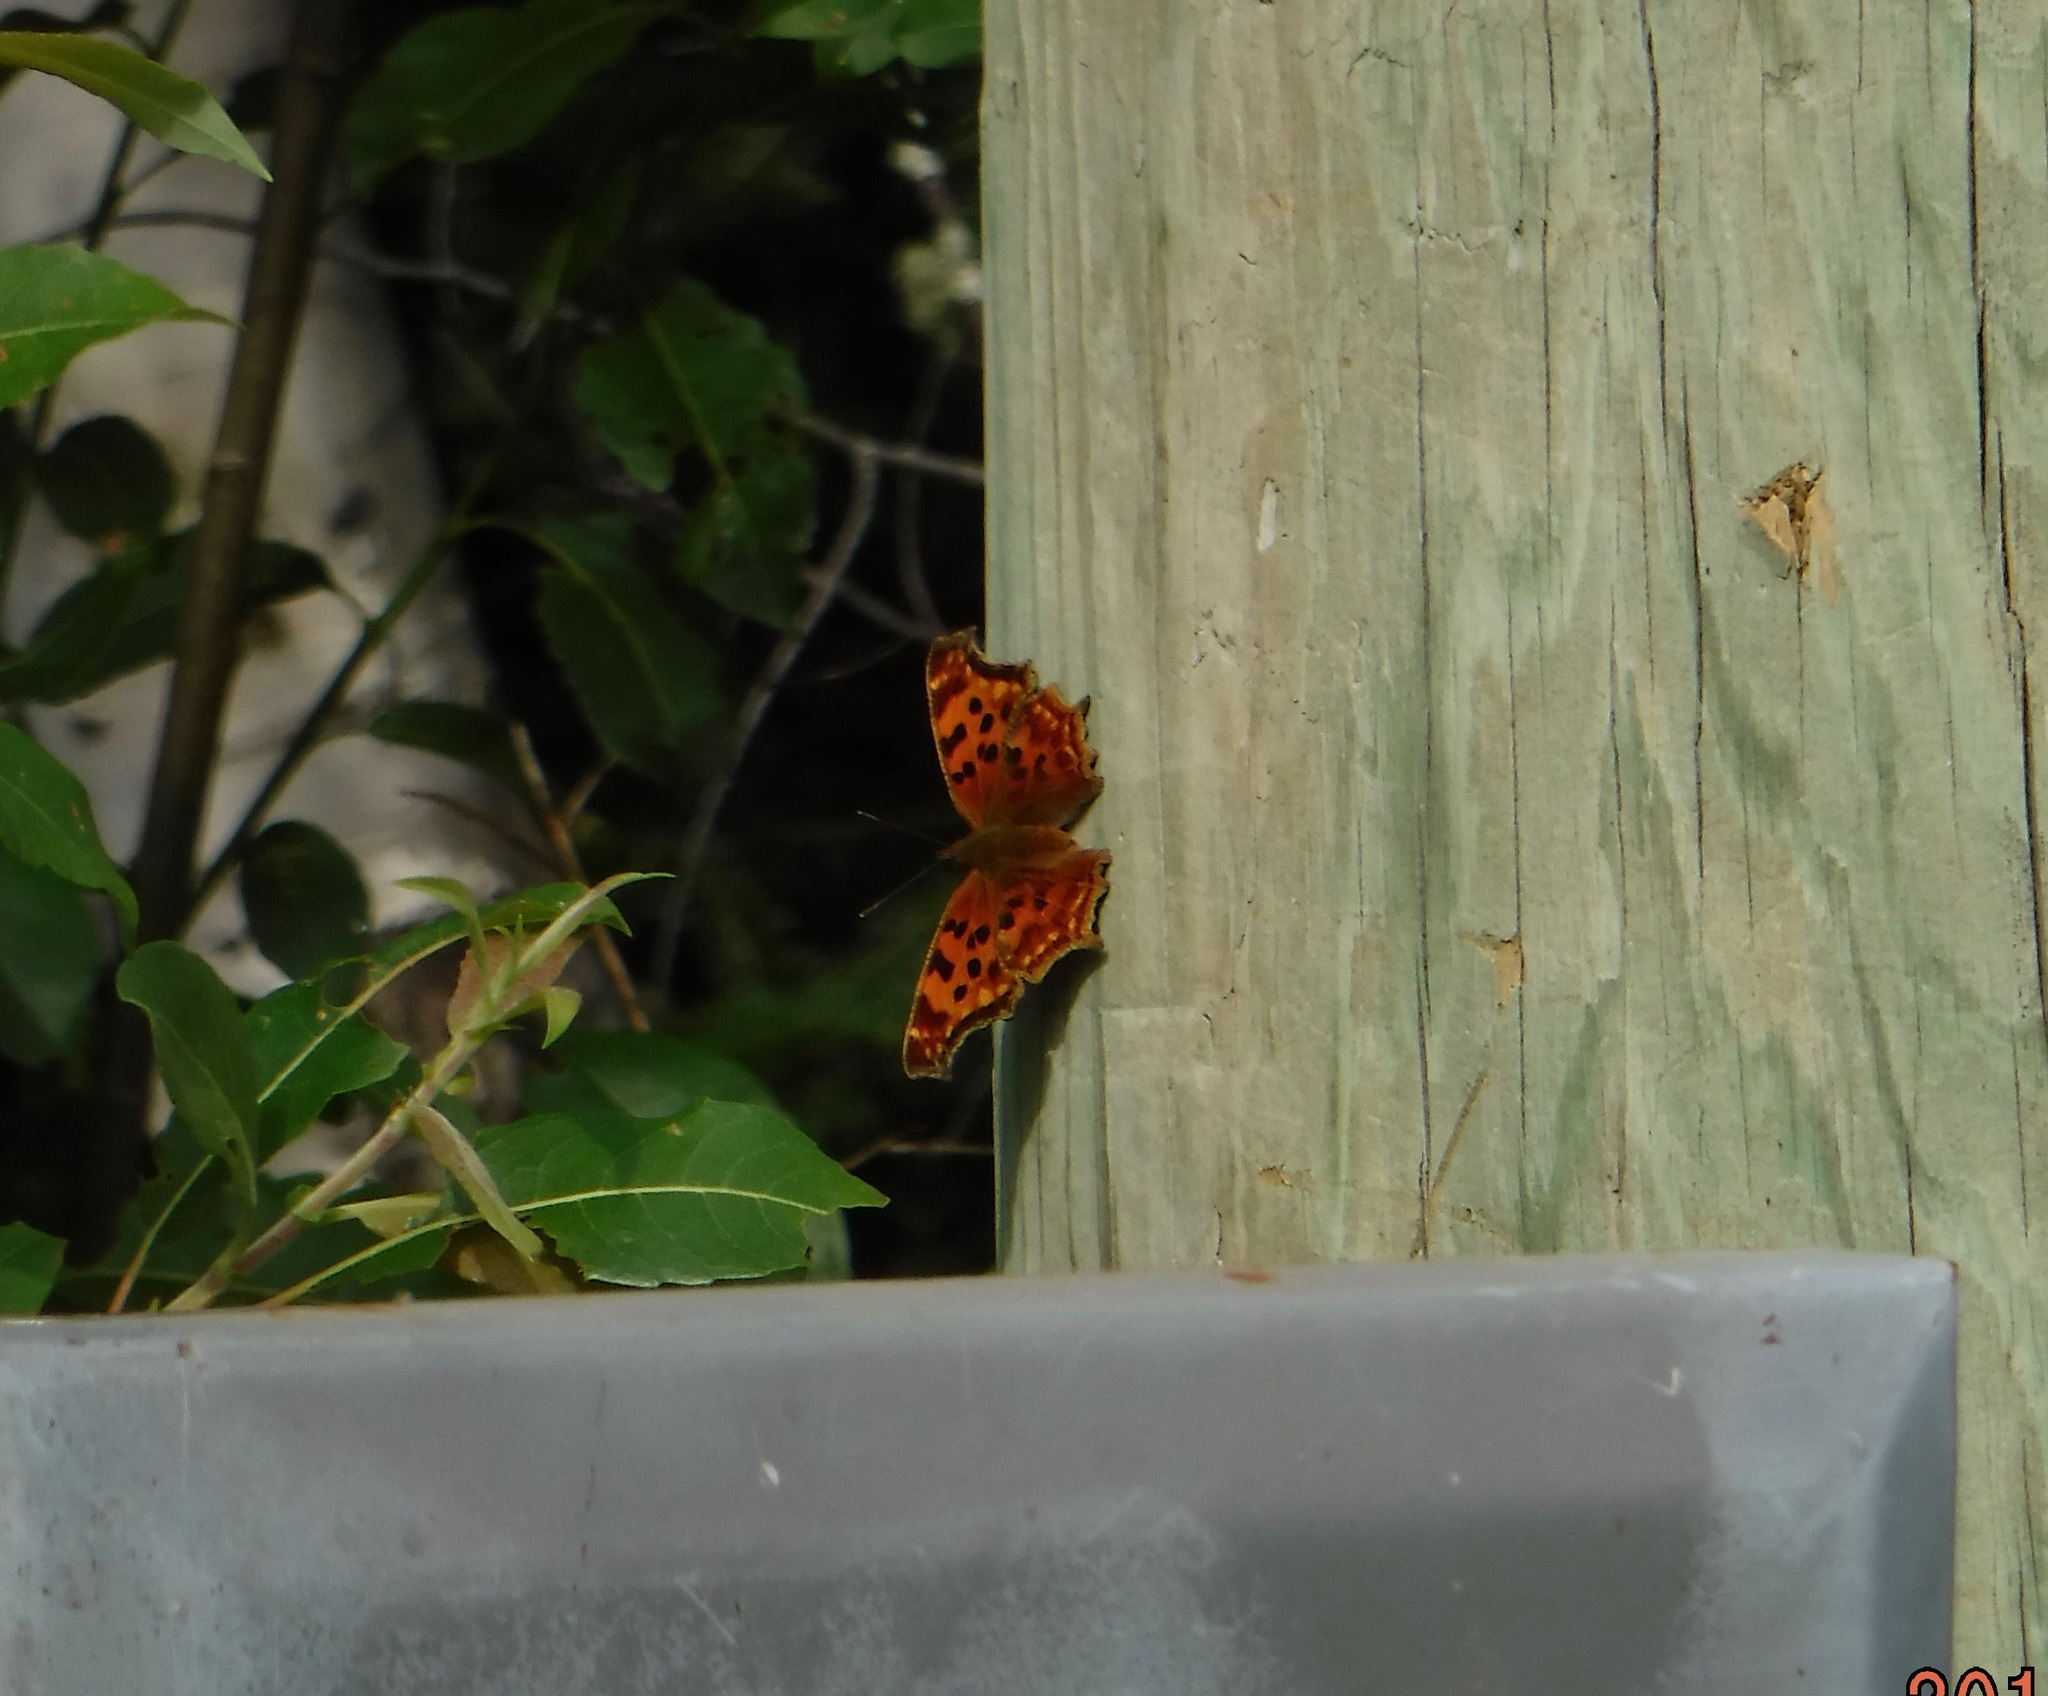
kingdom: Animalia
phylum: Arthropoda
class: Insecta
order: Lepidoptera
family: Nymphalidae
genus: Polygonia
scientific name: Polygonia satyrus
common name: Satyr angle wing
